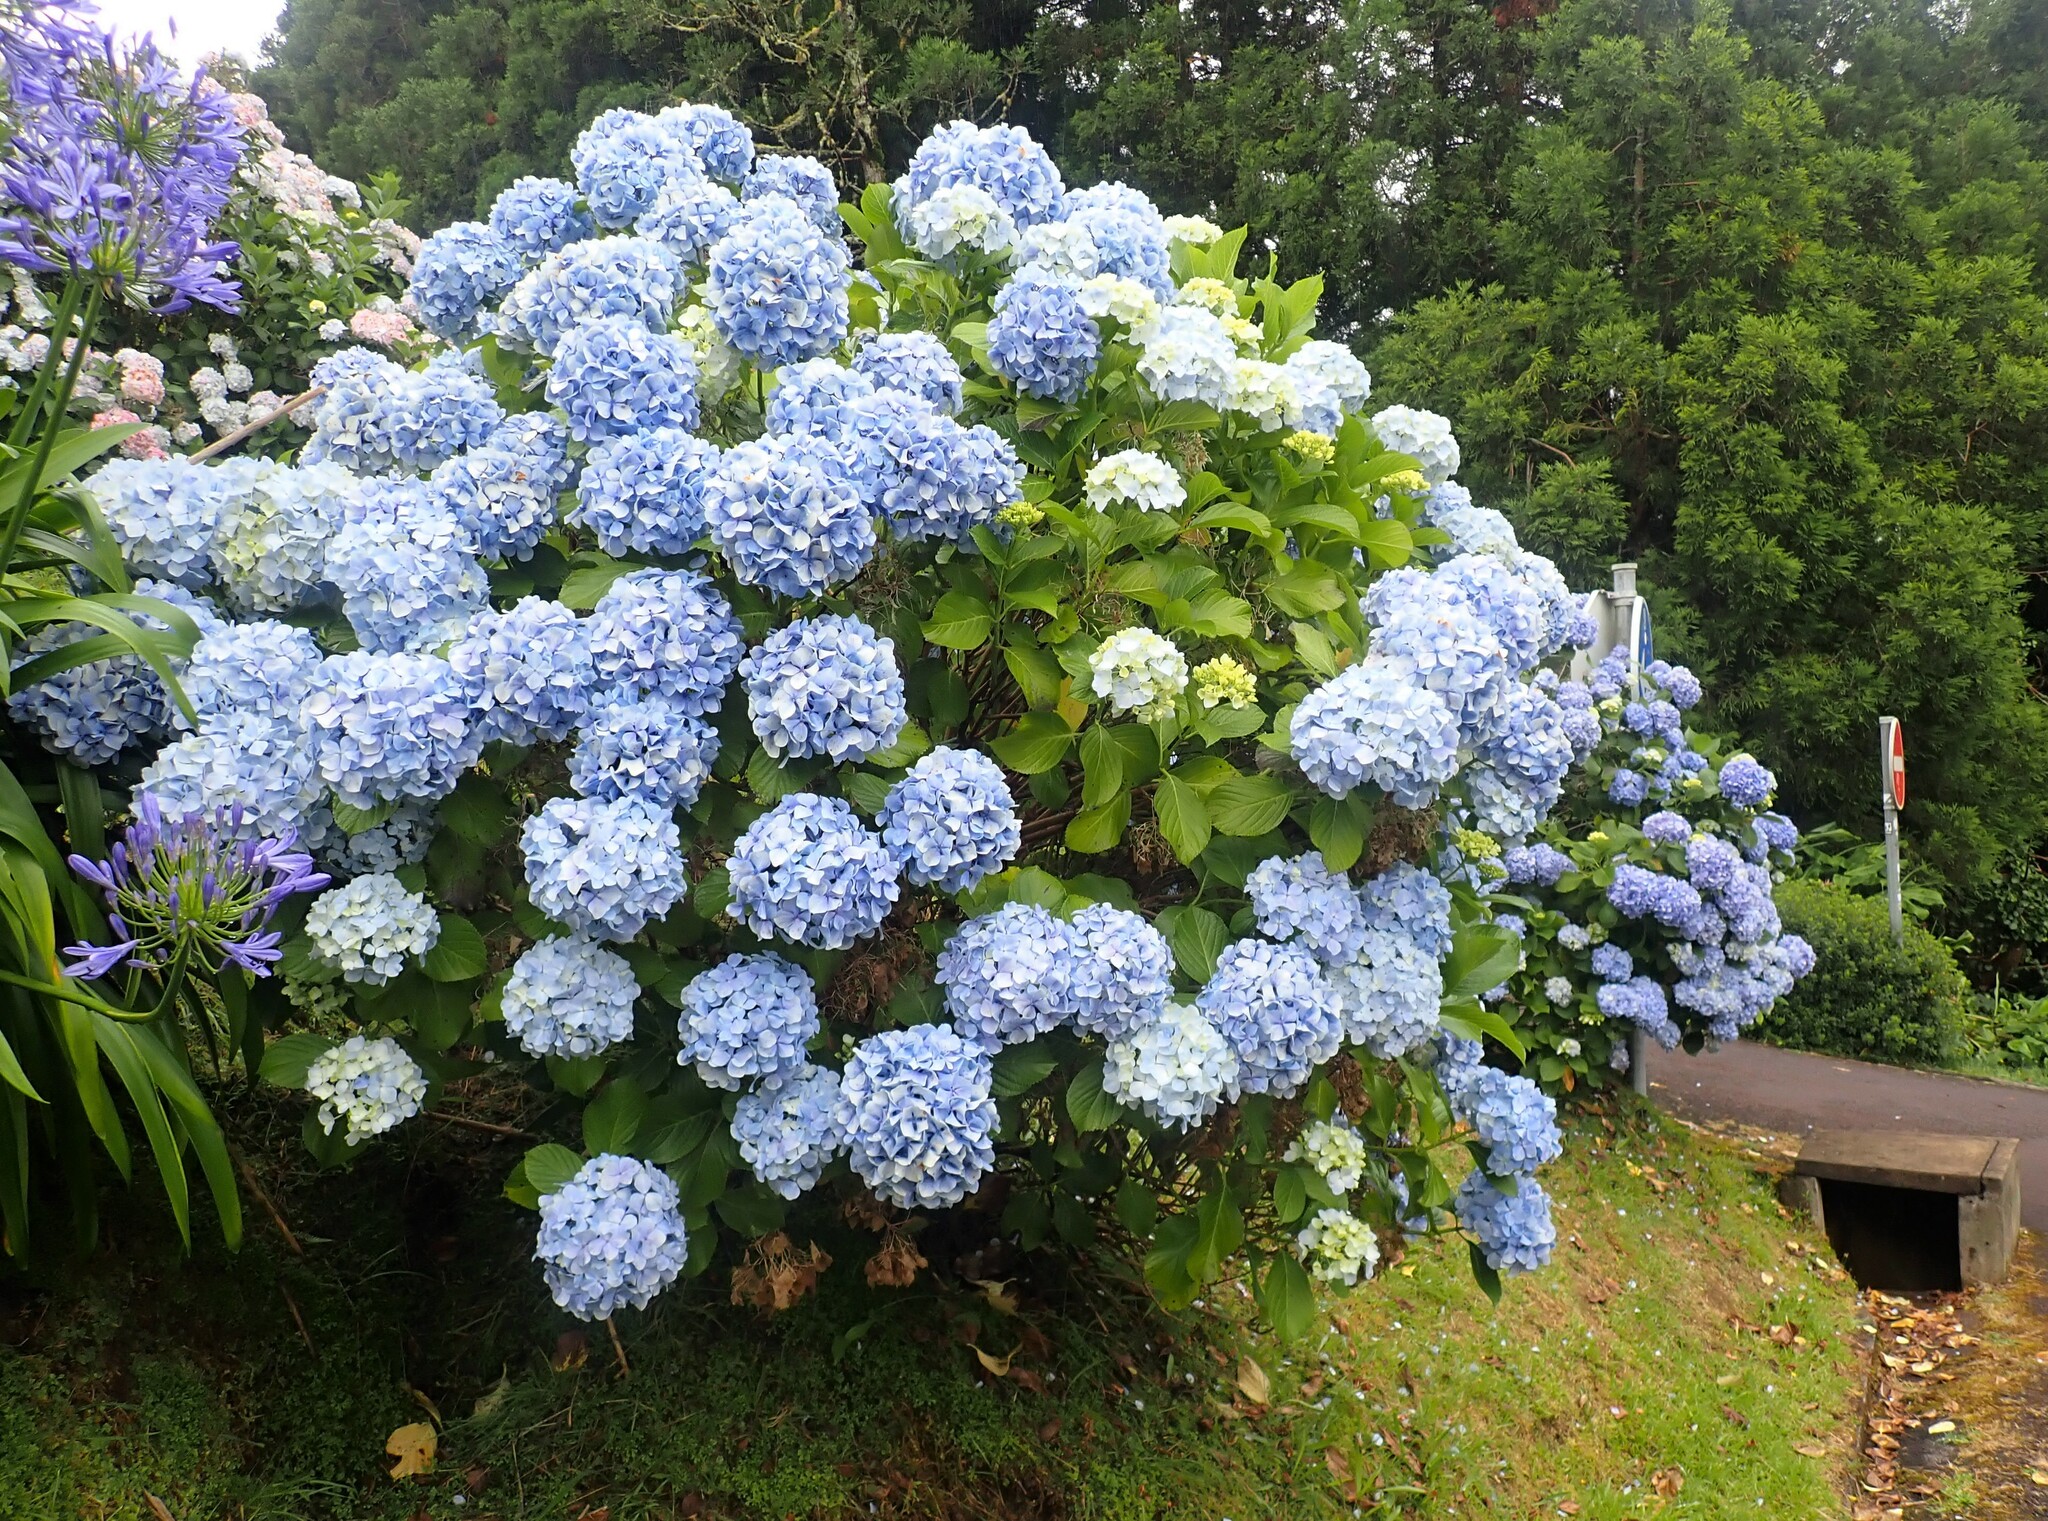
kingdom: Plantae
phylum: Tracheophyta
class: Magnoliopsida
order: Cornales
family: Hydrangeaceae
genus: Hydrangea
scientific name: Hydrangea macrophylla
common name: Hydrangea
